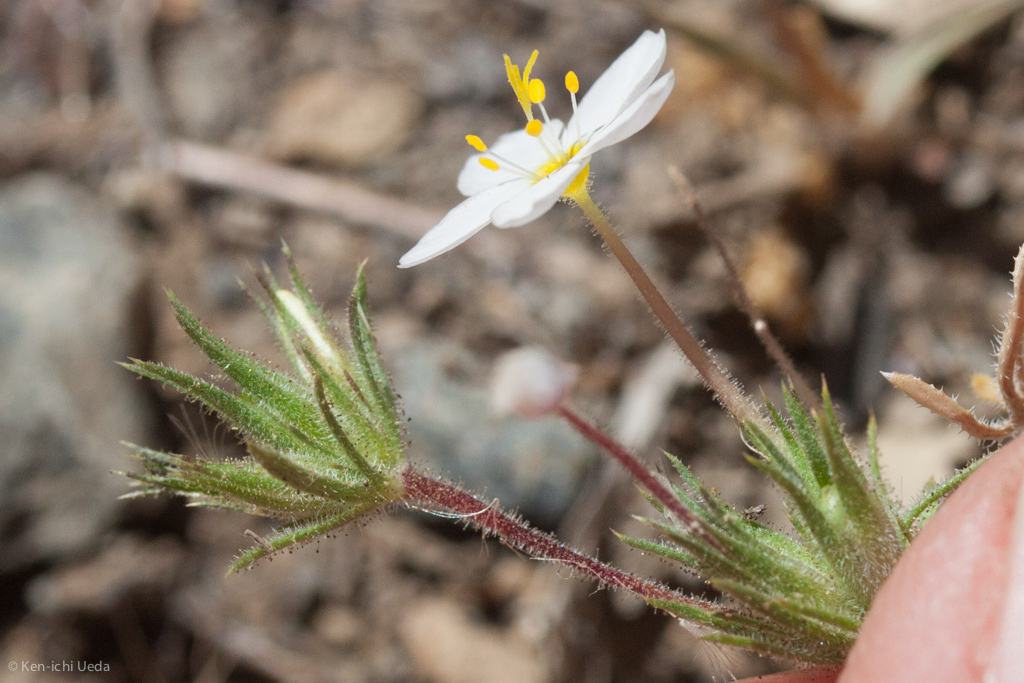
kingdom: Plantae
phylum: Tracheophyta
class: Magnoliopsida
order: Ericales
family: Polemoniaceae
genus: Leptosiphon
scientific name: Leptosiphon parviflorus
